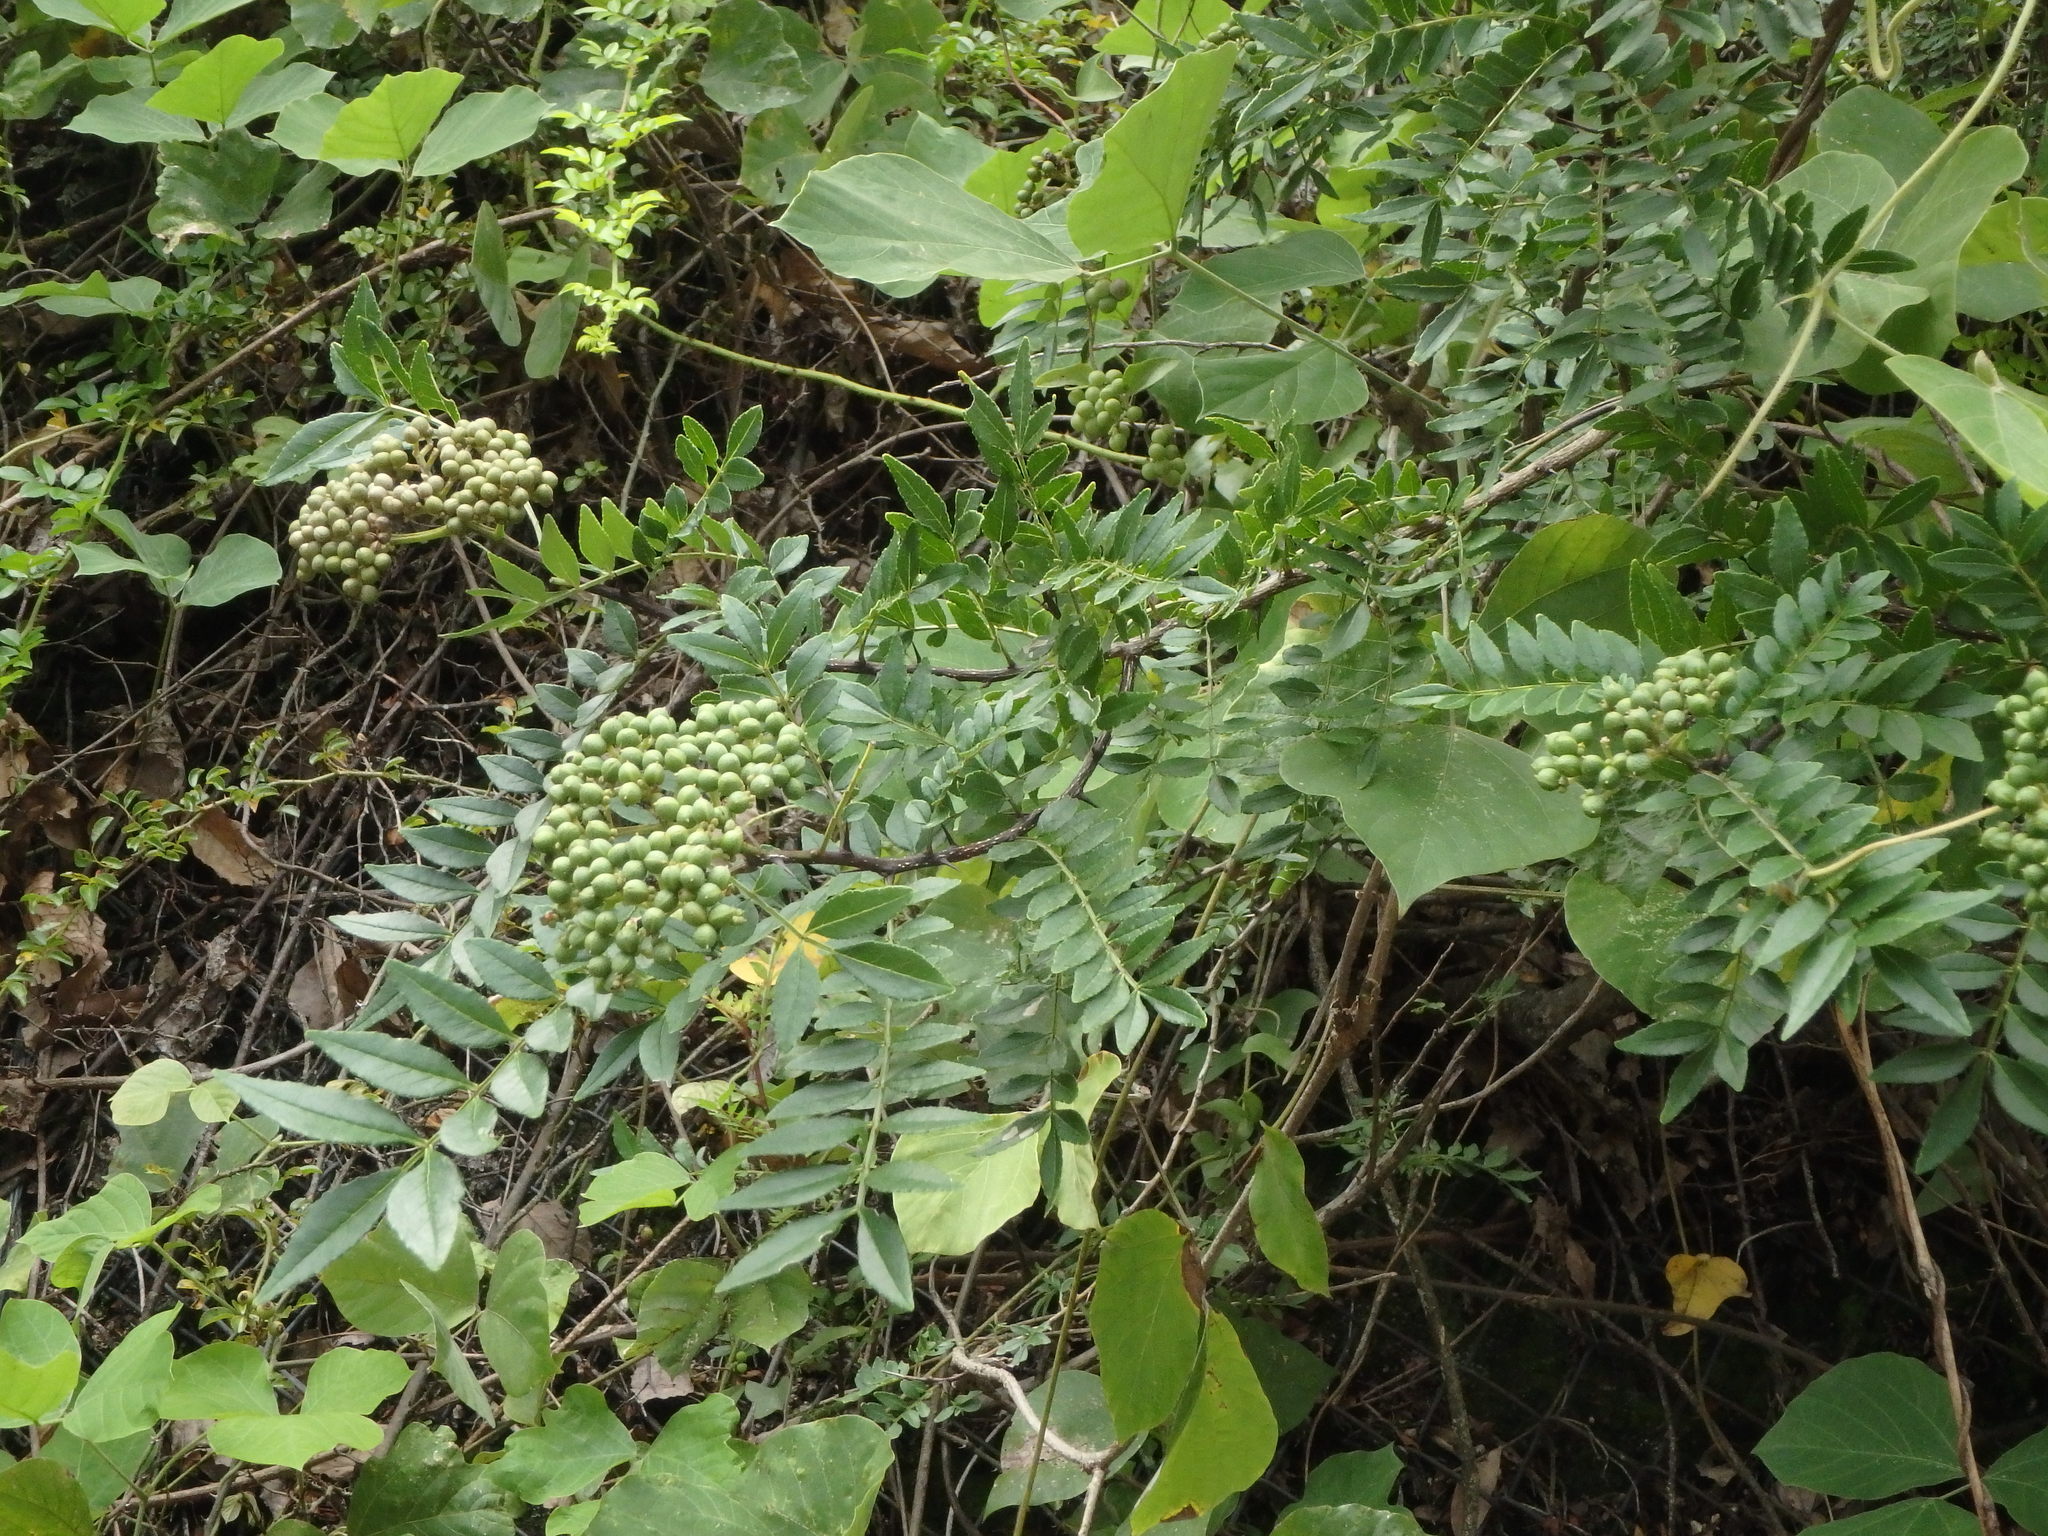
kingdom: Plantae
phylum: Tracheophyta
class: Magnoliopsida
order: Sapindales
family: Rutaceae
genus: Zanthoxylum
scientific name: Zanthoxylum schinifolium
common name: Sichuan-pepper
